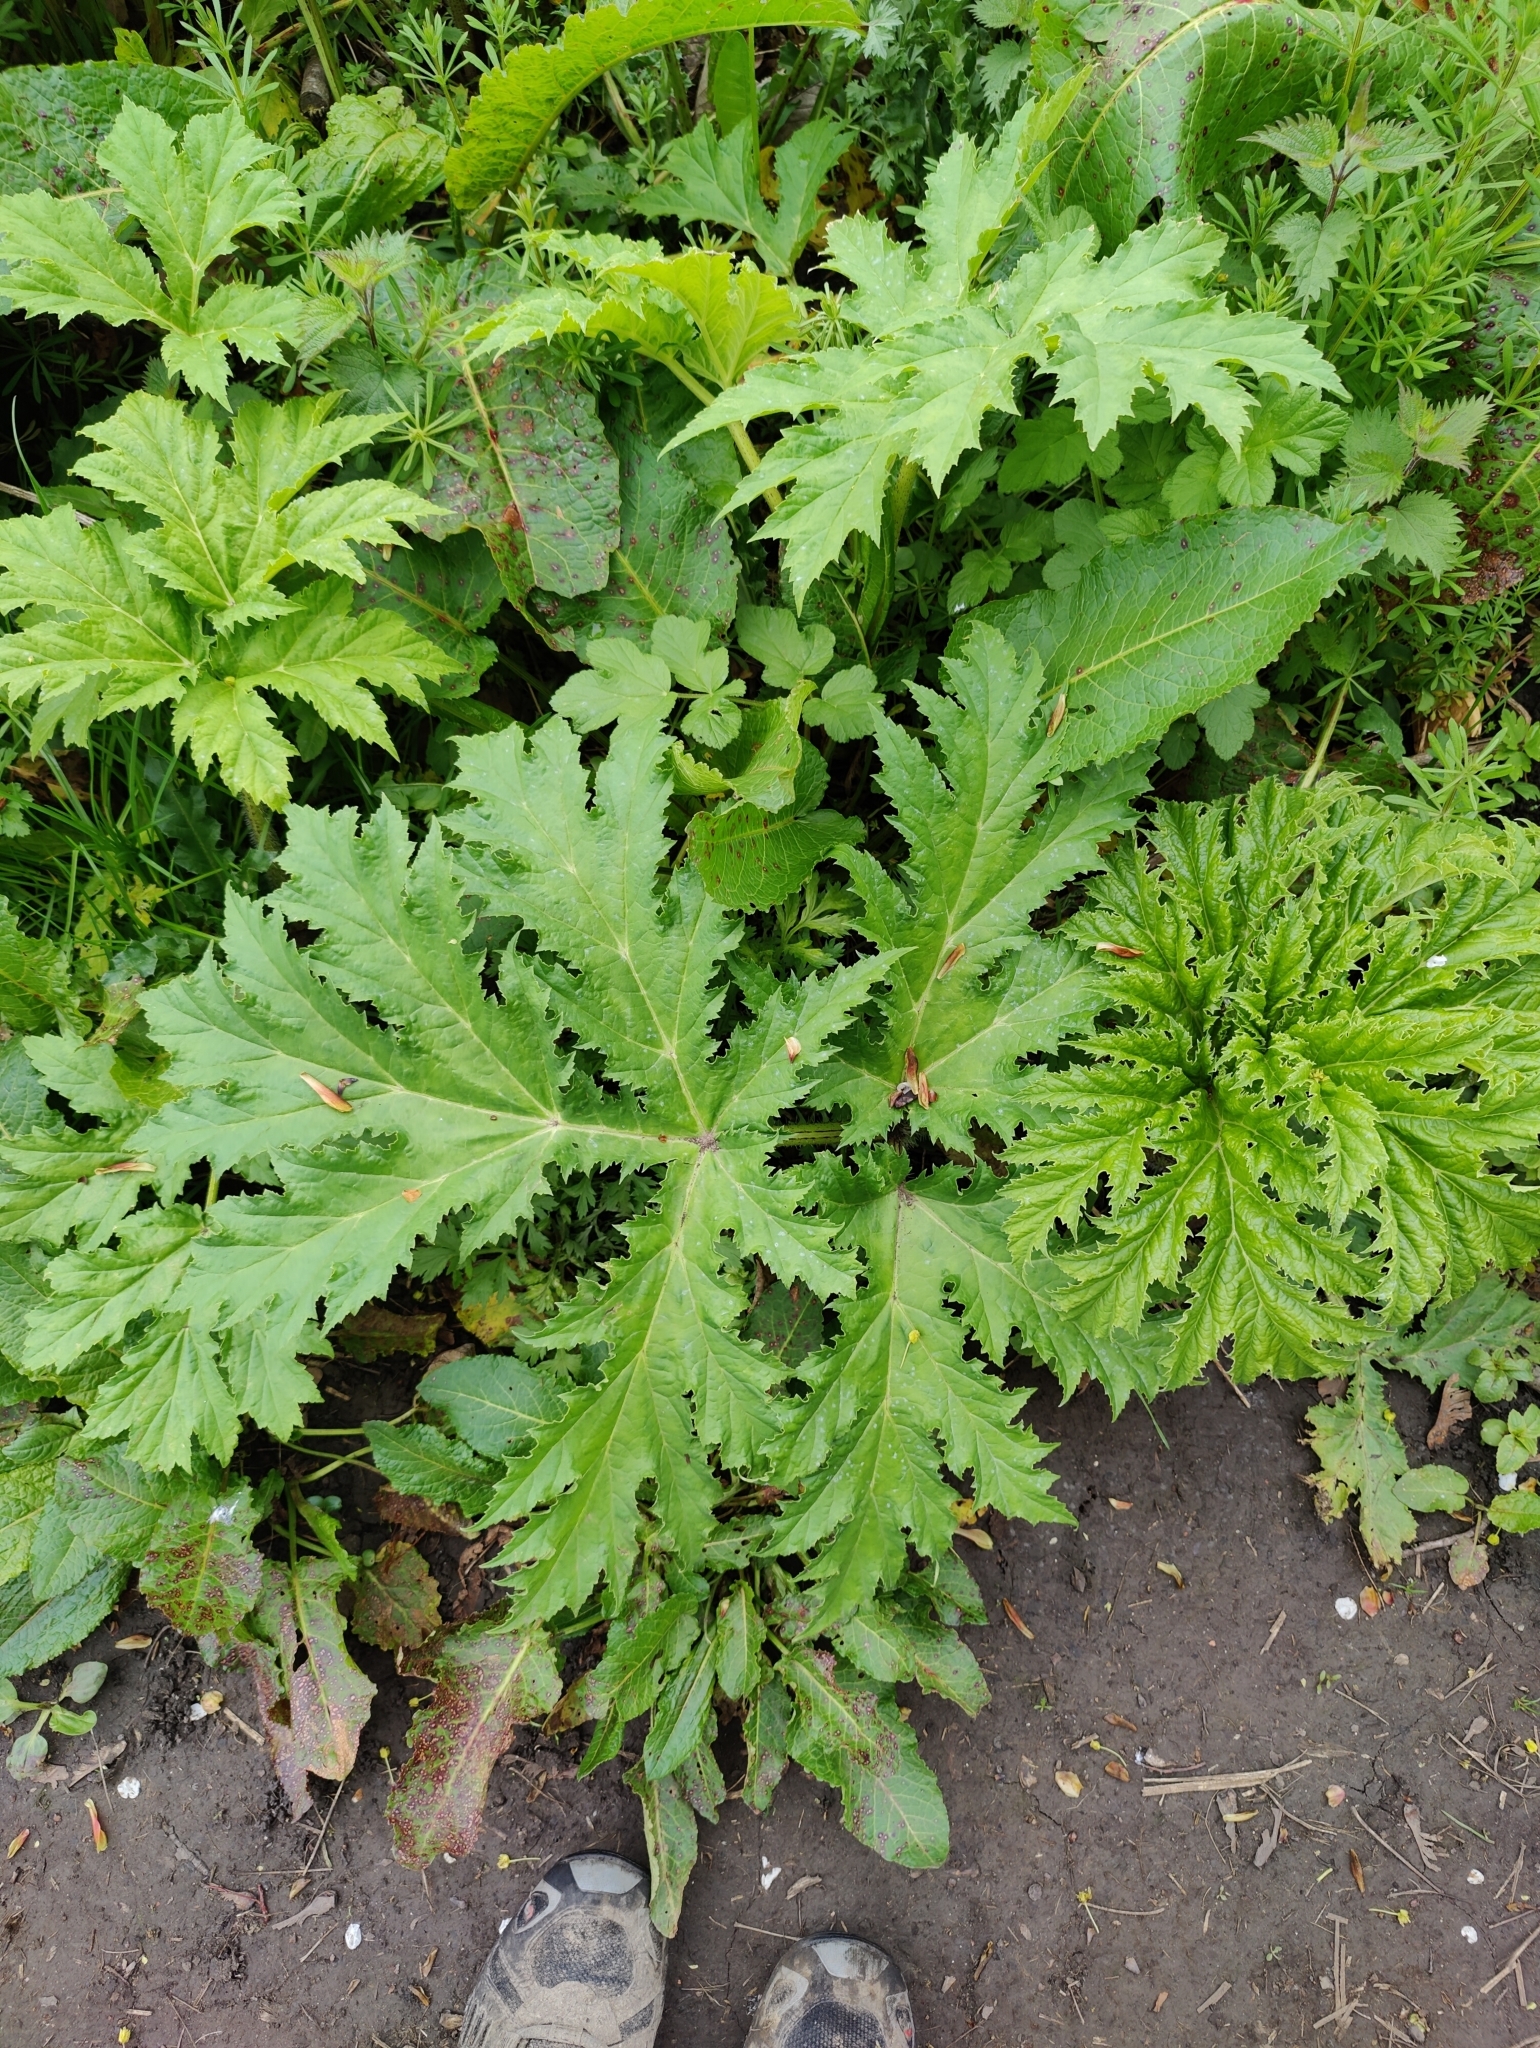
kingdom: Plantae
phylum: Tracheophyta
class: Magnoliopsida
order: Apiales
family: Apiaceae
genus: Heracleum
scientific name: Heracleum mantegazzianum
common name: Giant hogweed
